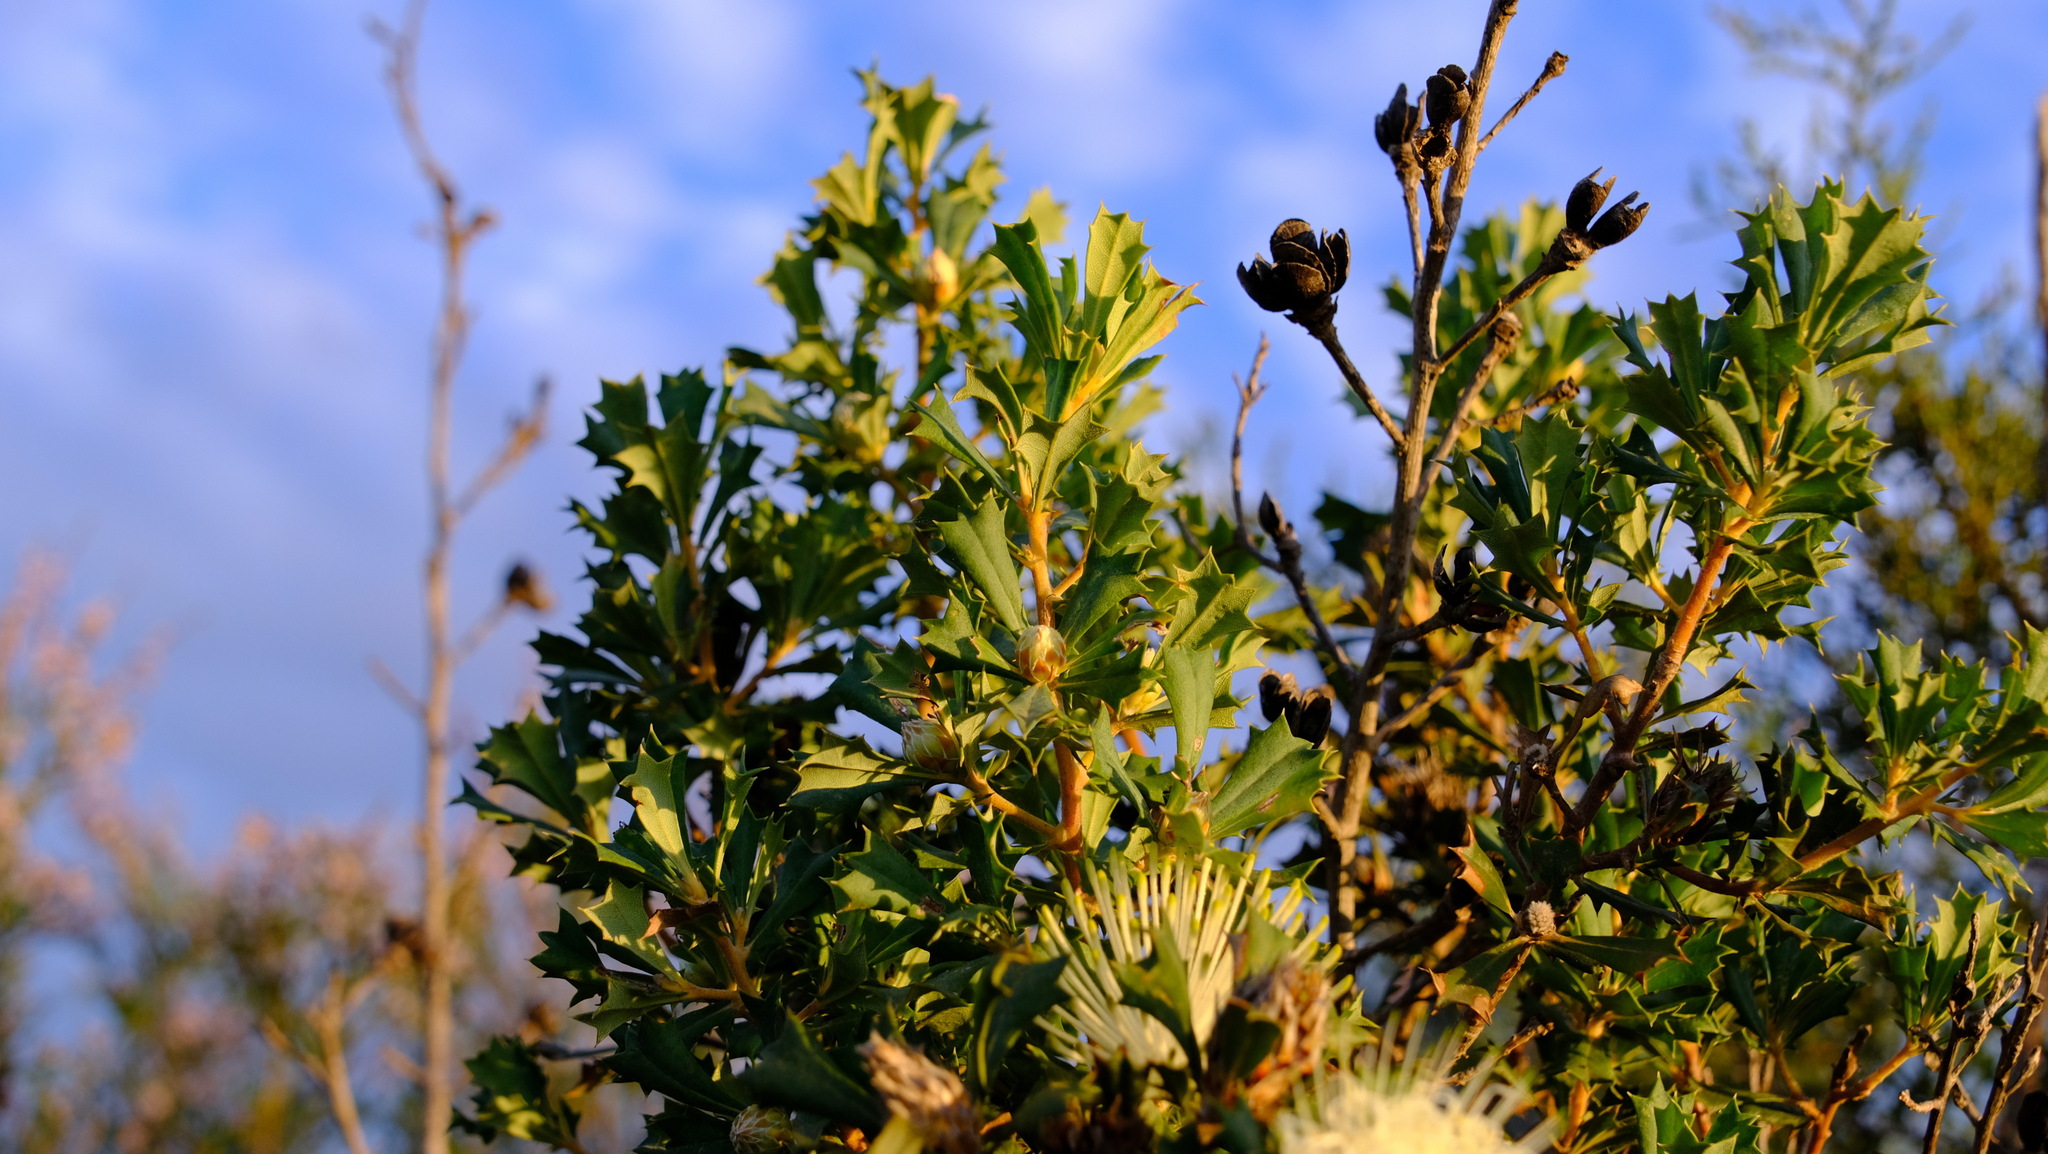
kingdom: Plantae
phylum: Tracheophyta
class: Magnoliopsida
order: Proteales
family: Proteaceae
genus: Banksia
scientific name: Banksia sessilis
